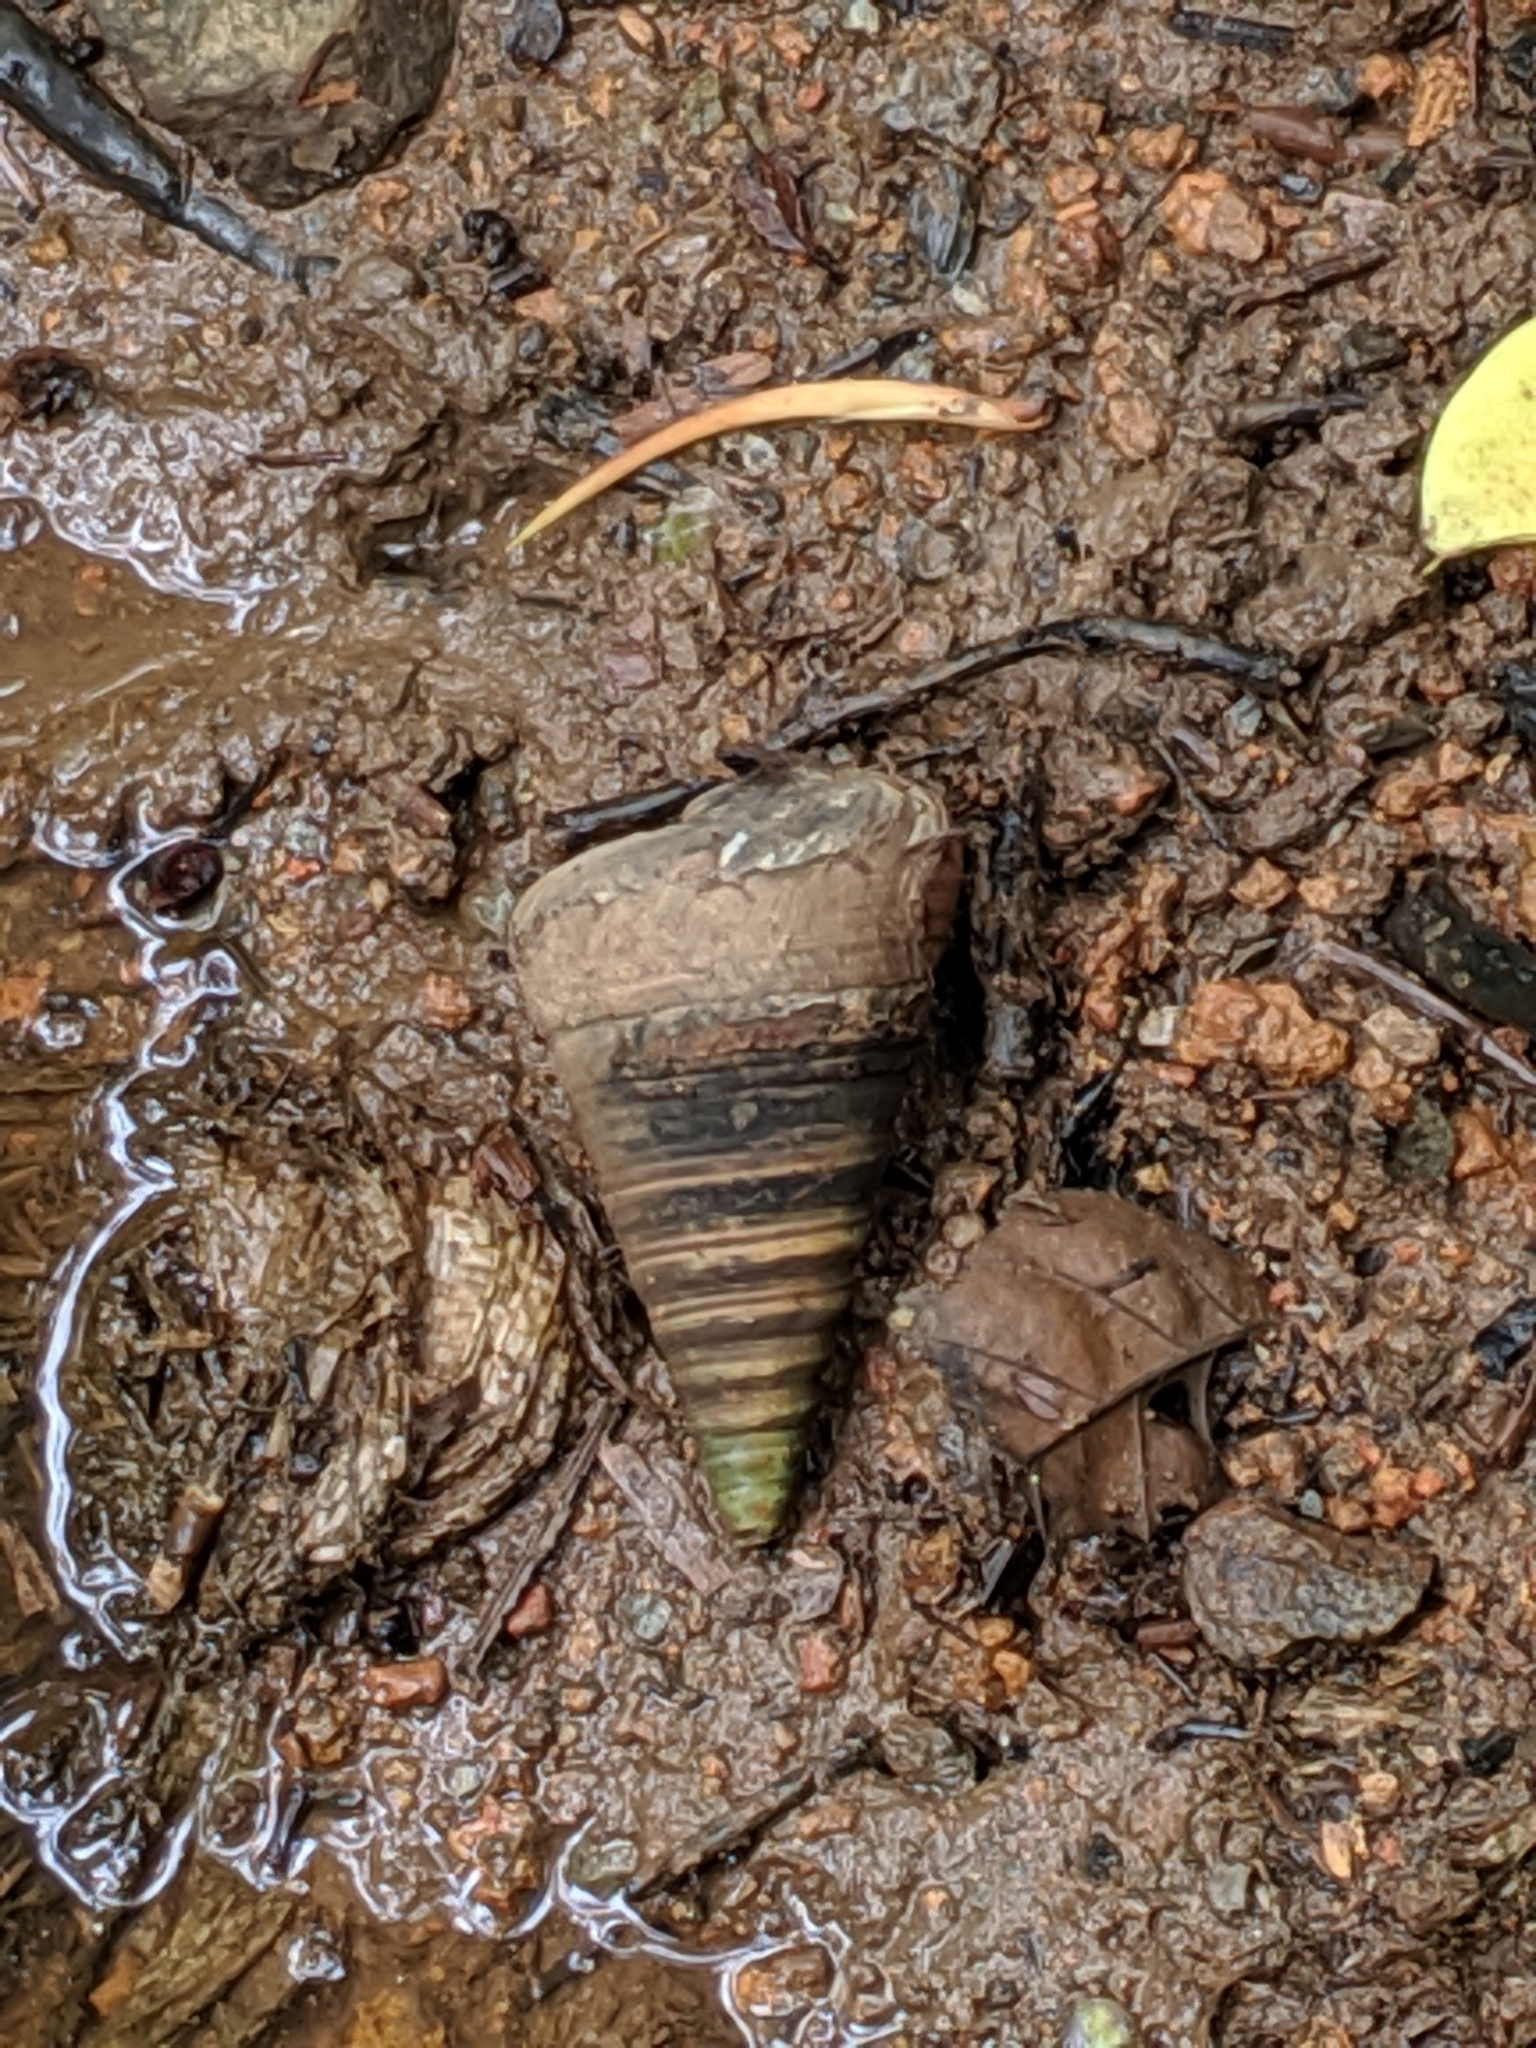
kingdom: Animalia
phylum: Mollusca
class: Gastropoda
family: Potamididae
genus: Telescopium
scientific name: Telescopium telescopium
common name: Telescope creeper
